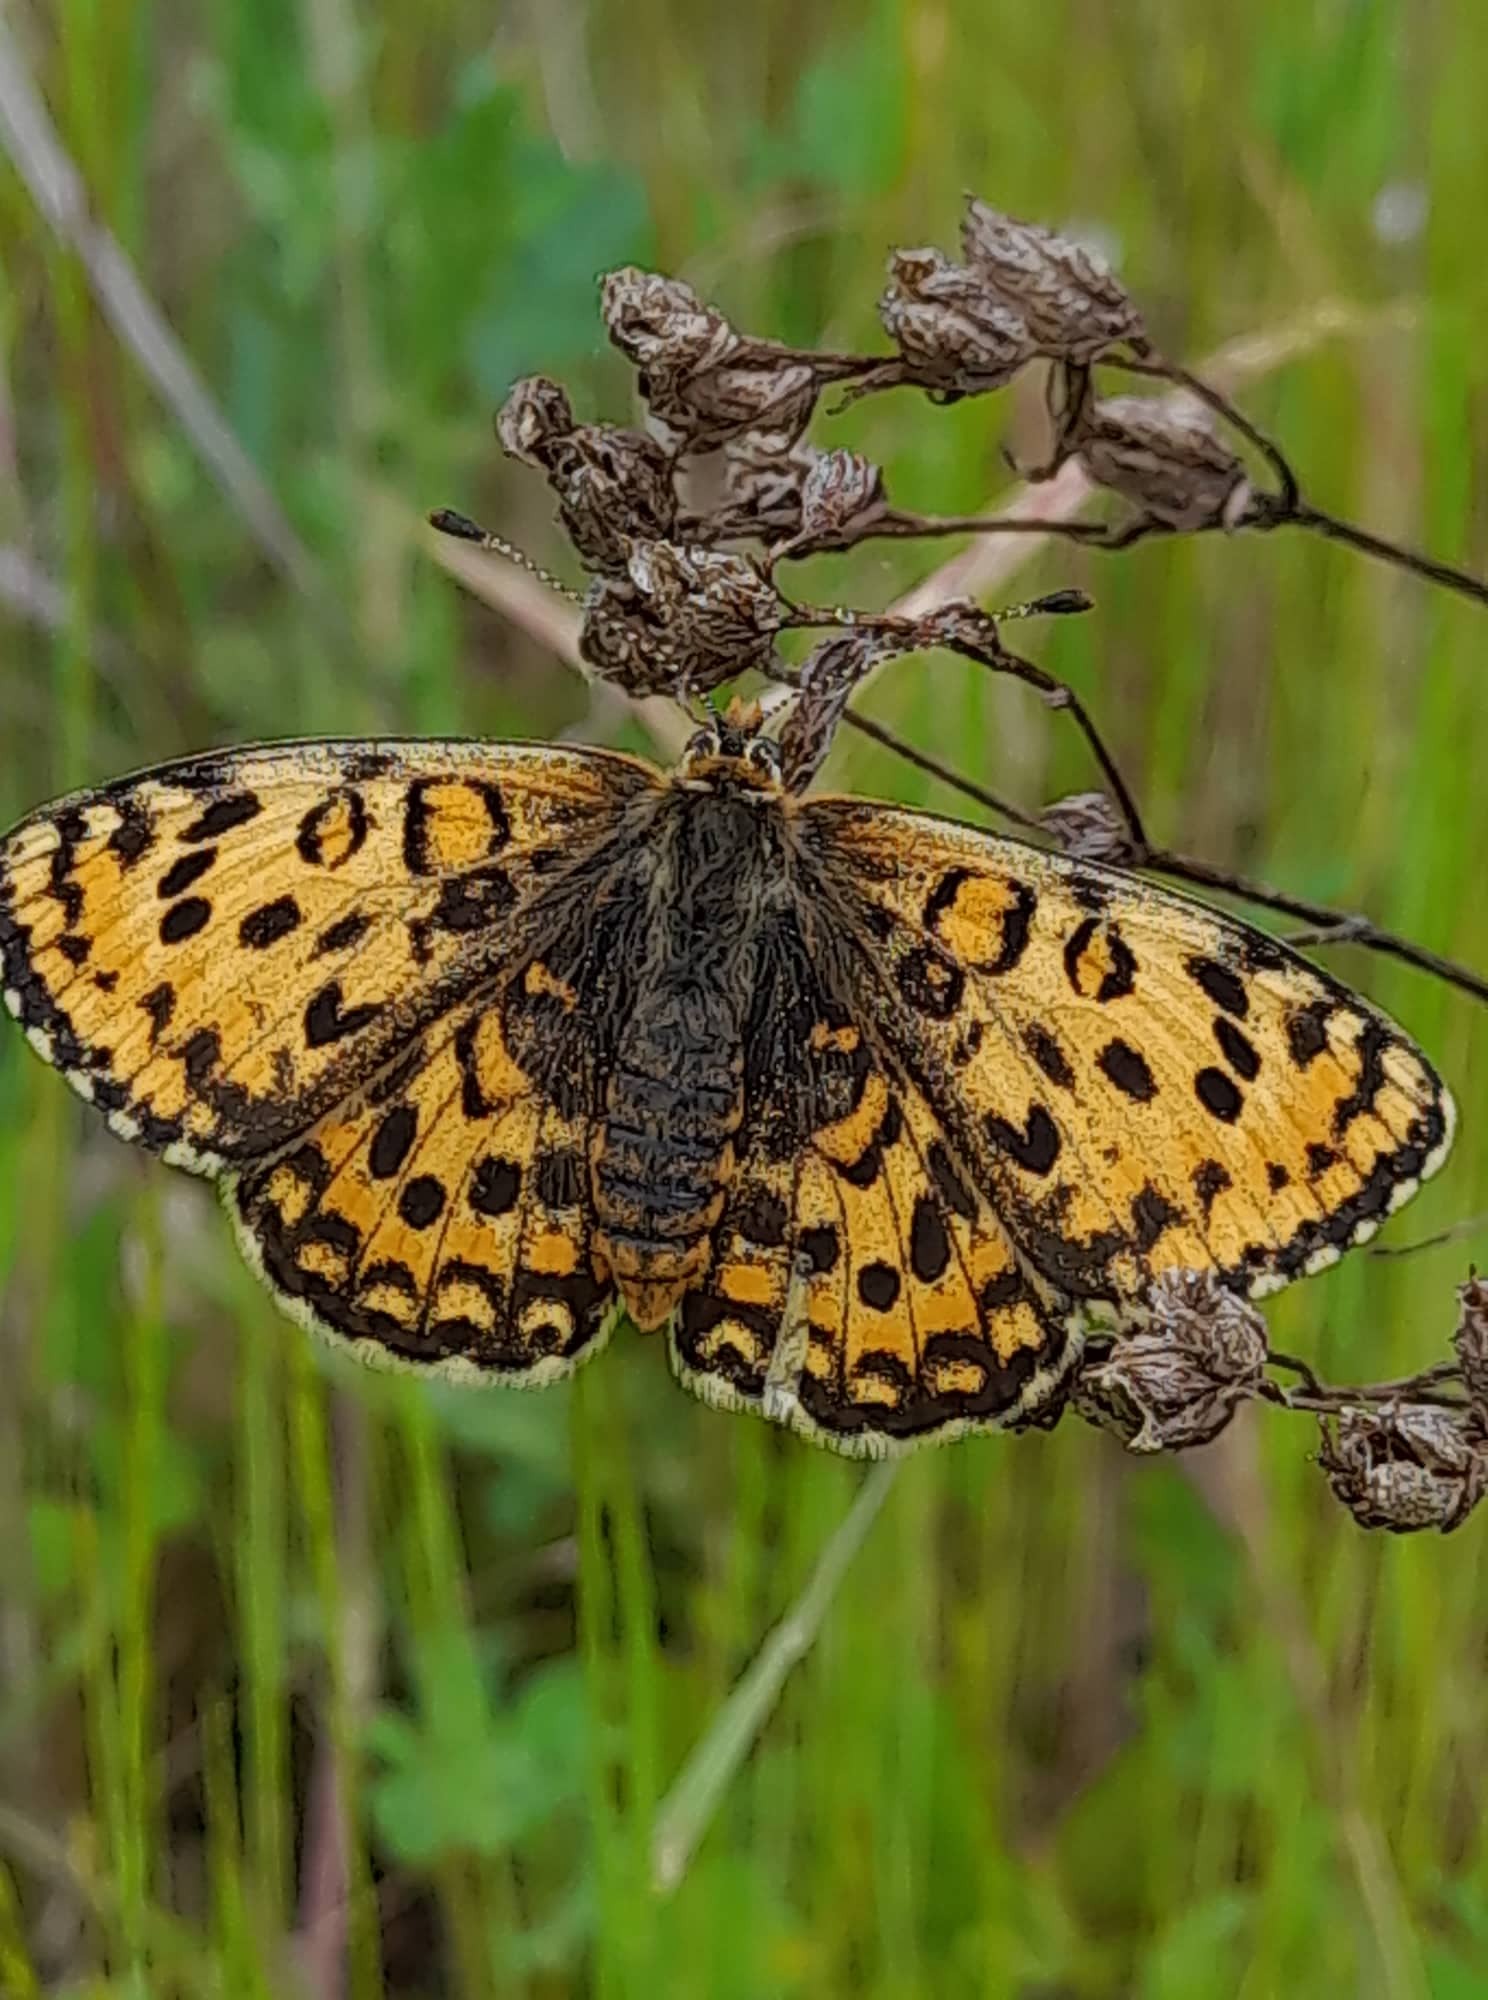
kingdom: Animalia
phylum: Arthropoda
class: Insecta
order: Lepidoptera
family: Nymphalidae
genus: Melitaea
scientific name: Melitaea trivia
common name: Lesser spotted fritillary
